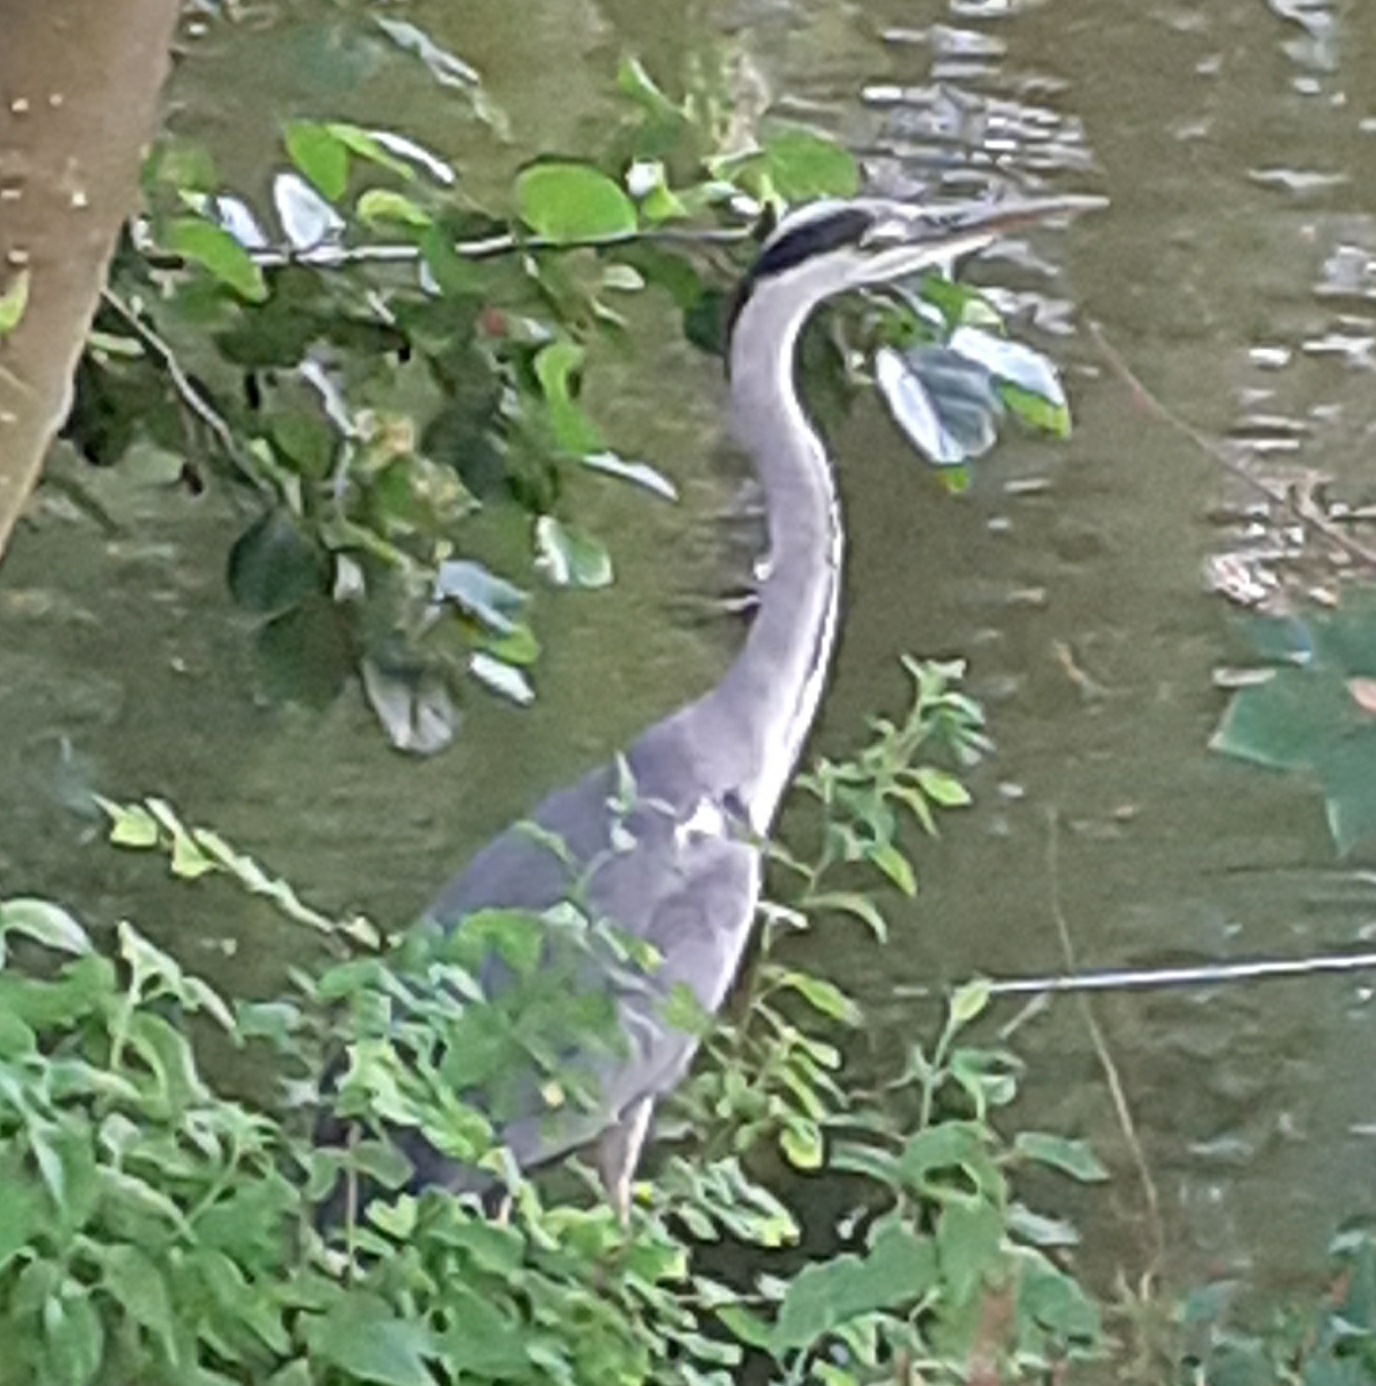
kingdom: Animalia
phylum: Chordata
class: Aves
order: Pelecaniformes
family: Ardeidae
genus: Ardea
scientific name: Ardea cinerea
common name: Grey heron
